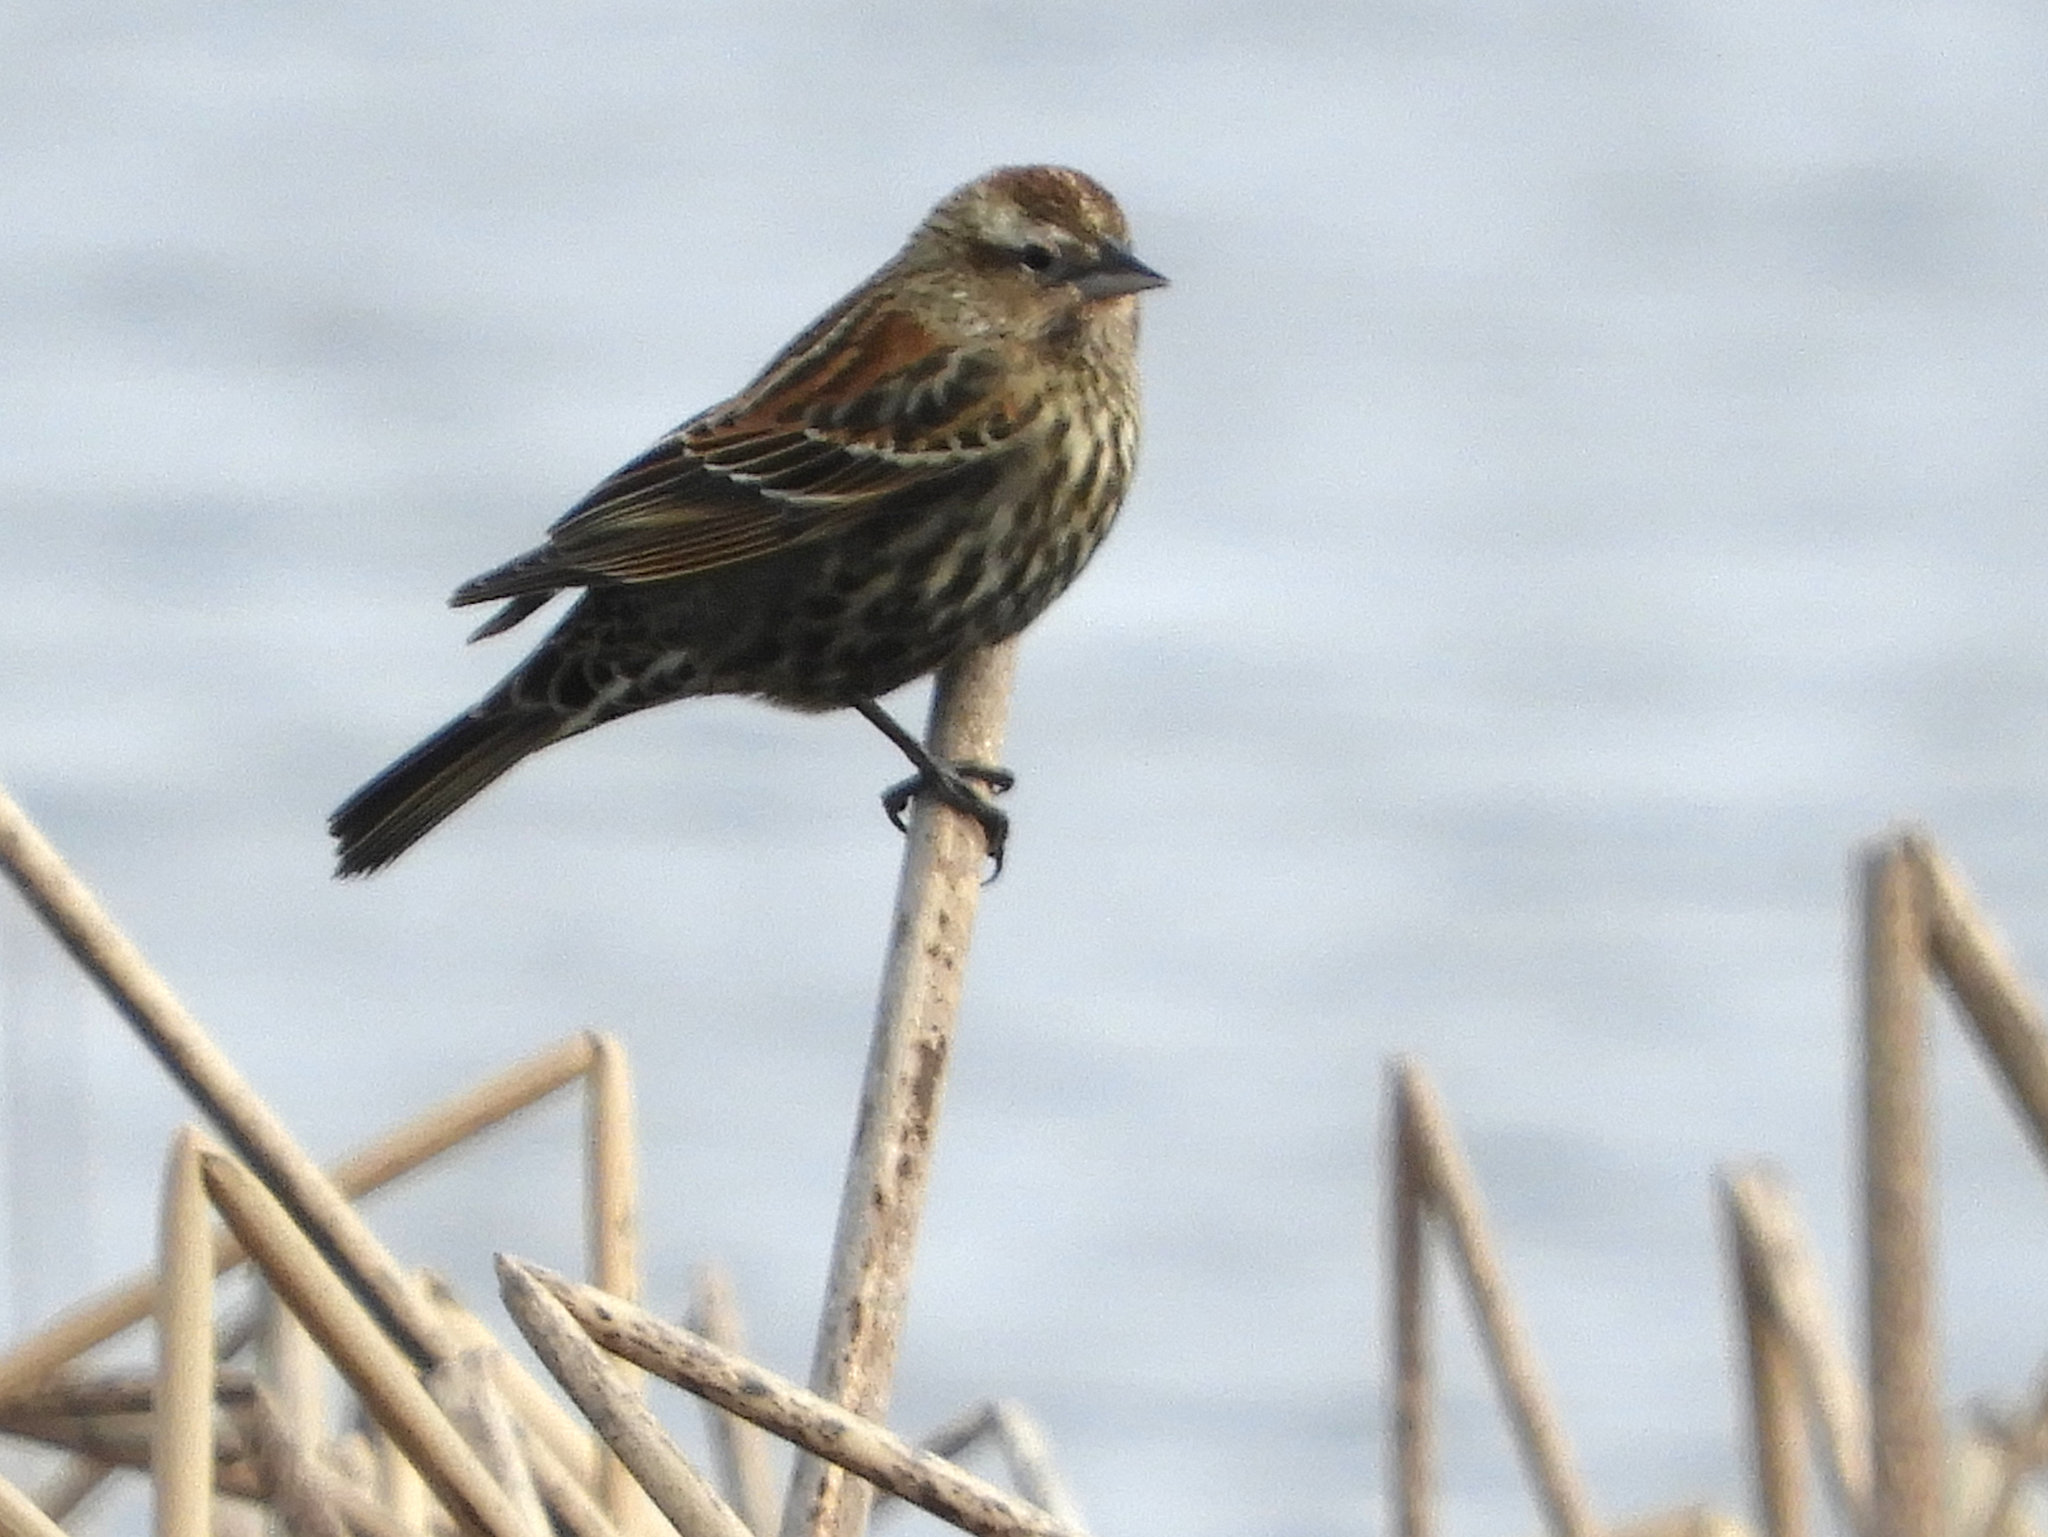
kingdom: Animalia
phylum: Chordata
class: Aves
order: Passeriformes
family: Icteridae
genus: Agelaius
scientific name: Agelaius phoeniceus
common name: Red-winged blackbird
